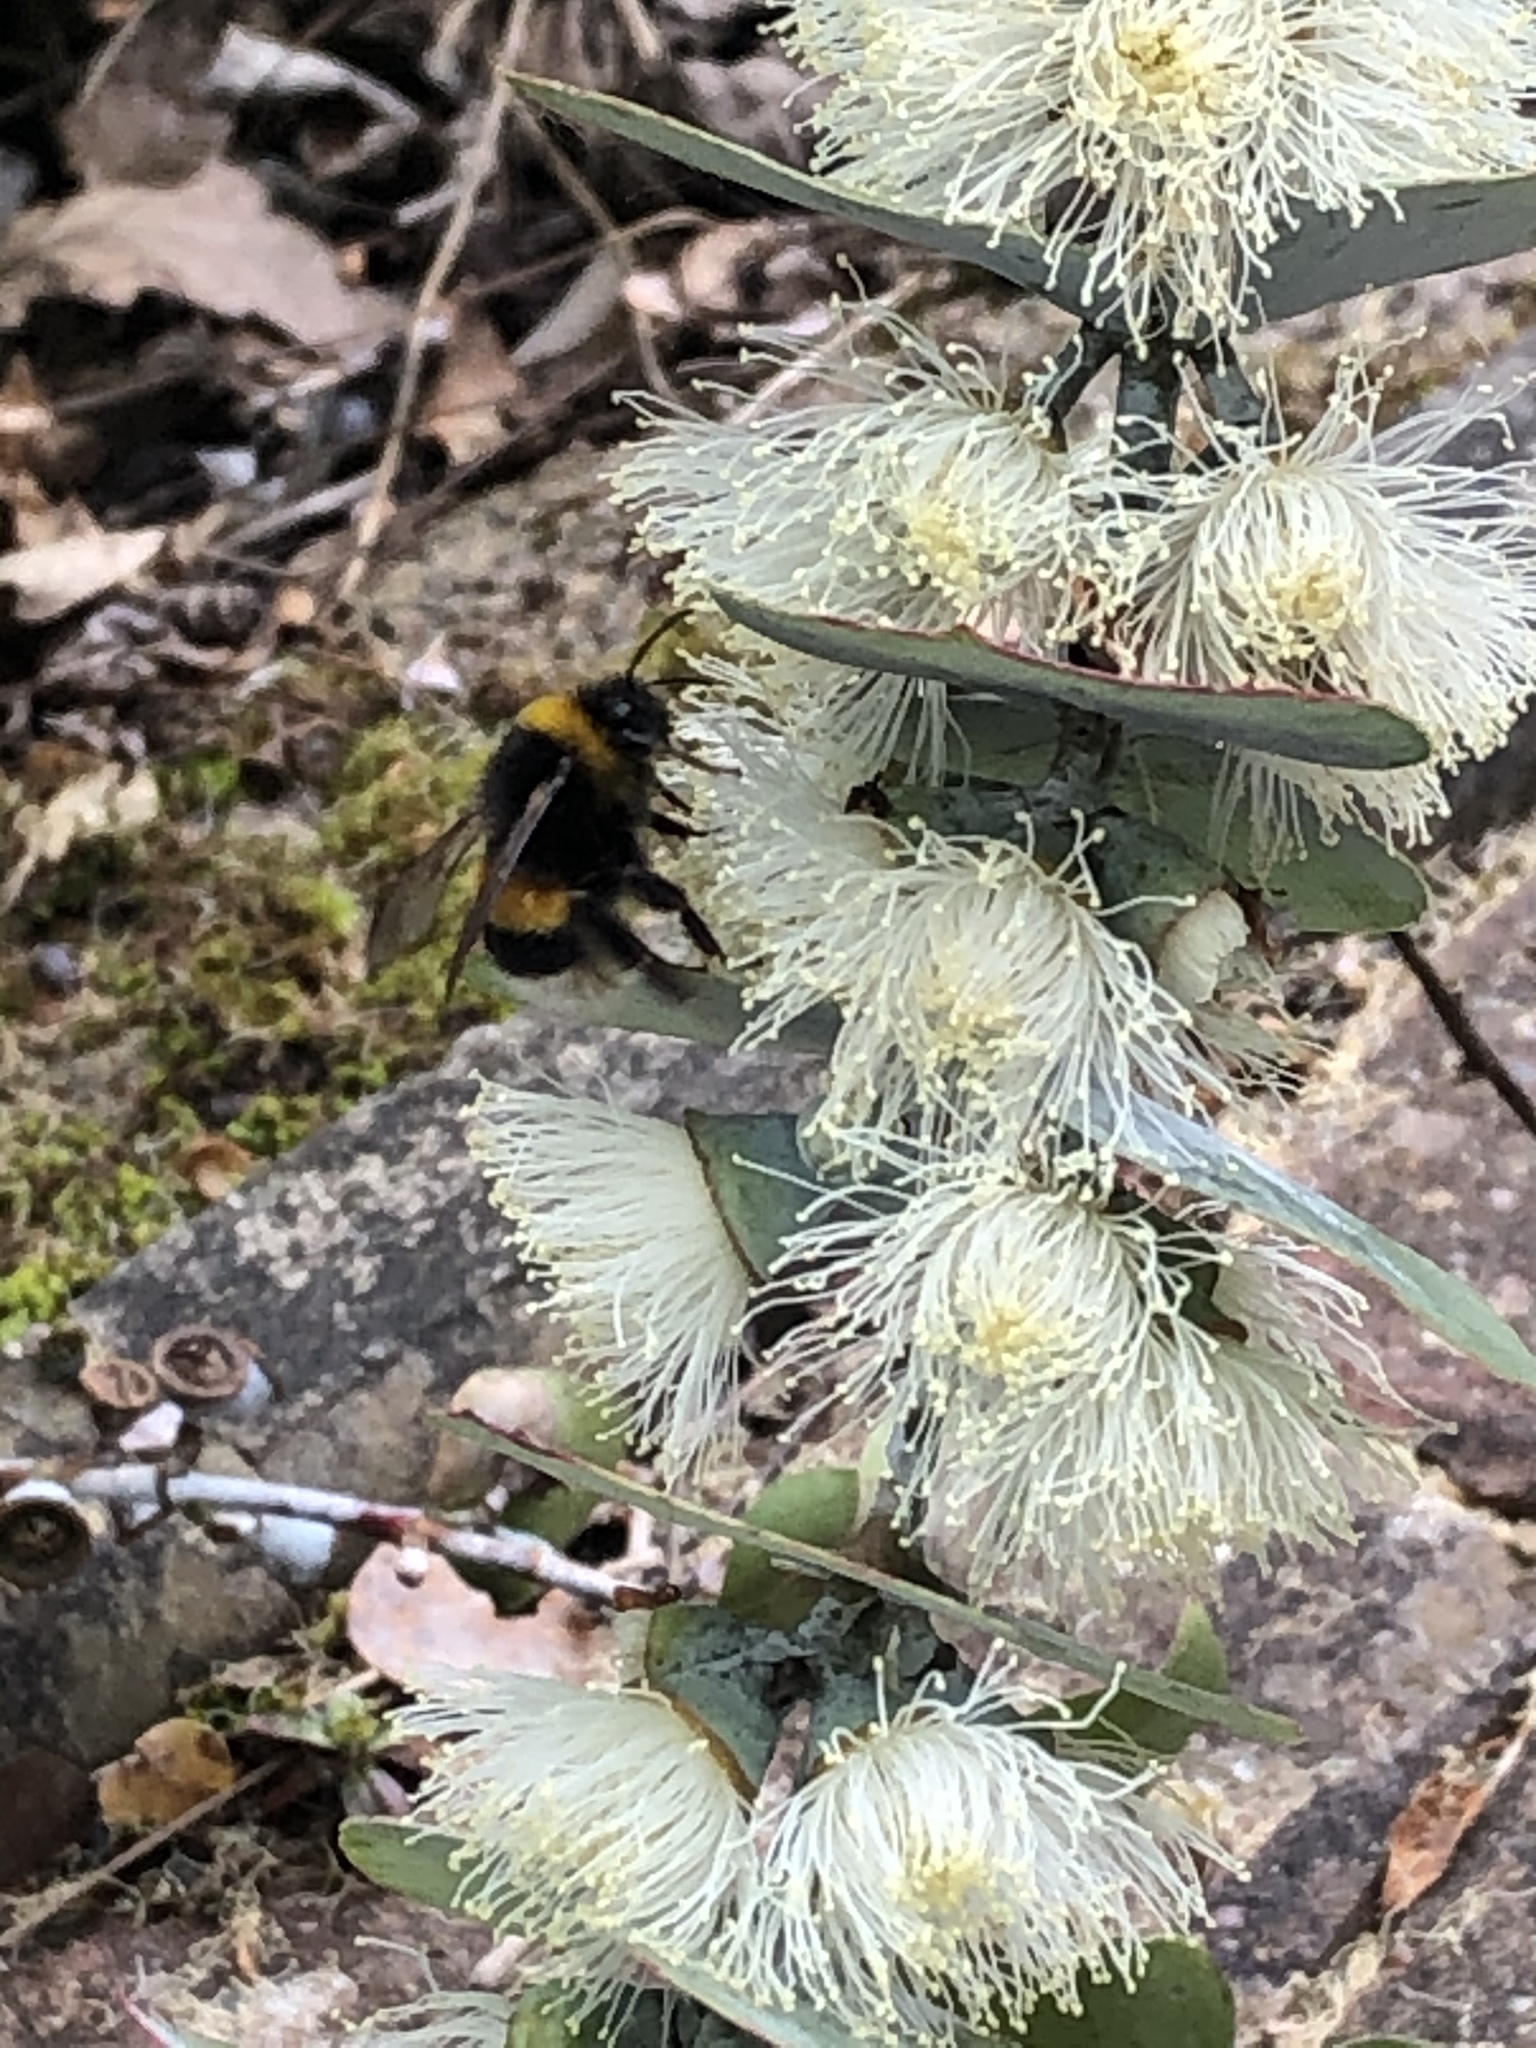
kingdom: Animalia
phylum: Arthropoda
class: Insecta
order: Hymenoptera
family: Apidae
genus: Bombus
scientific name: Bombus
